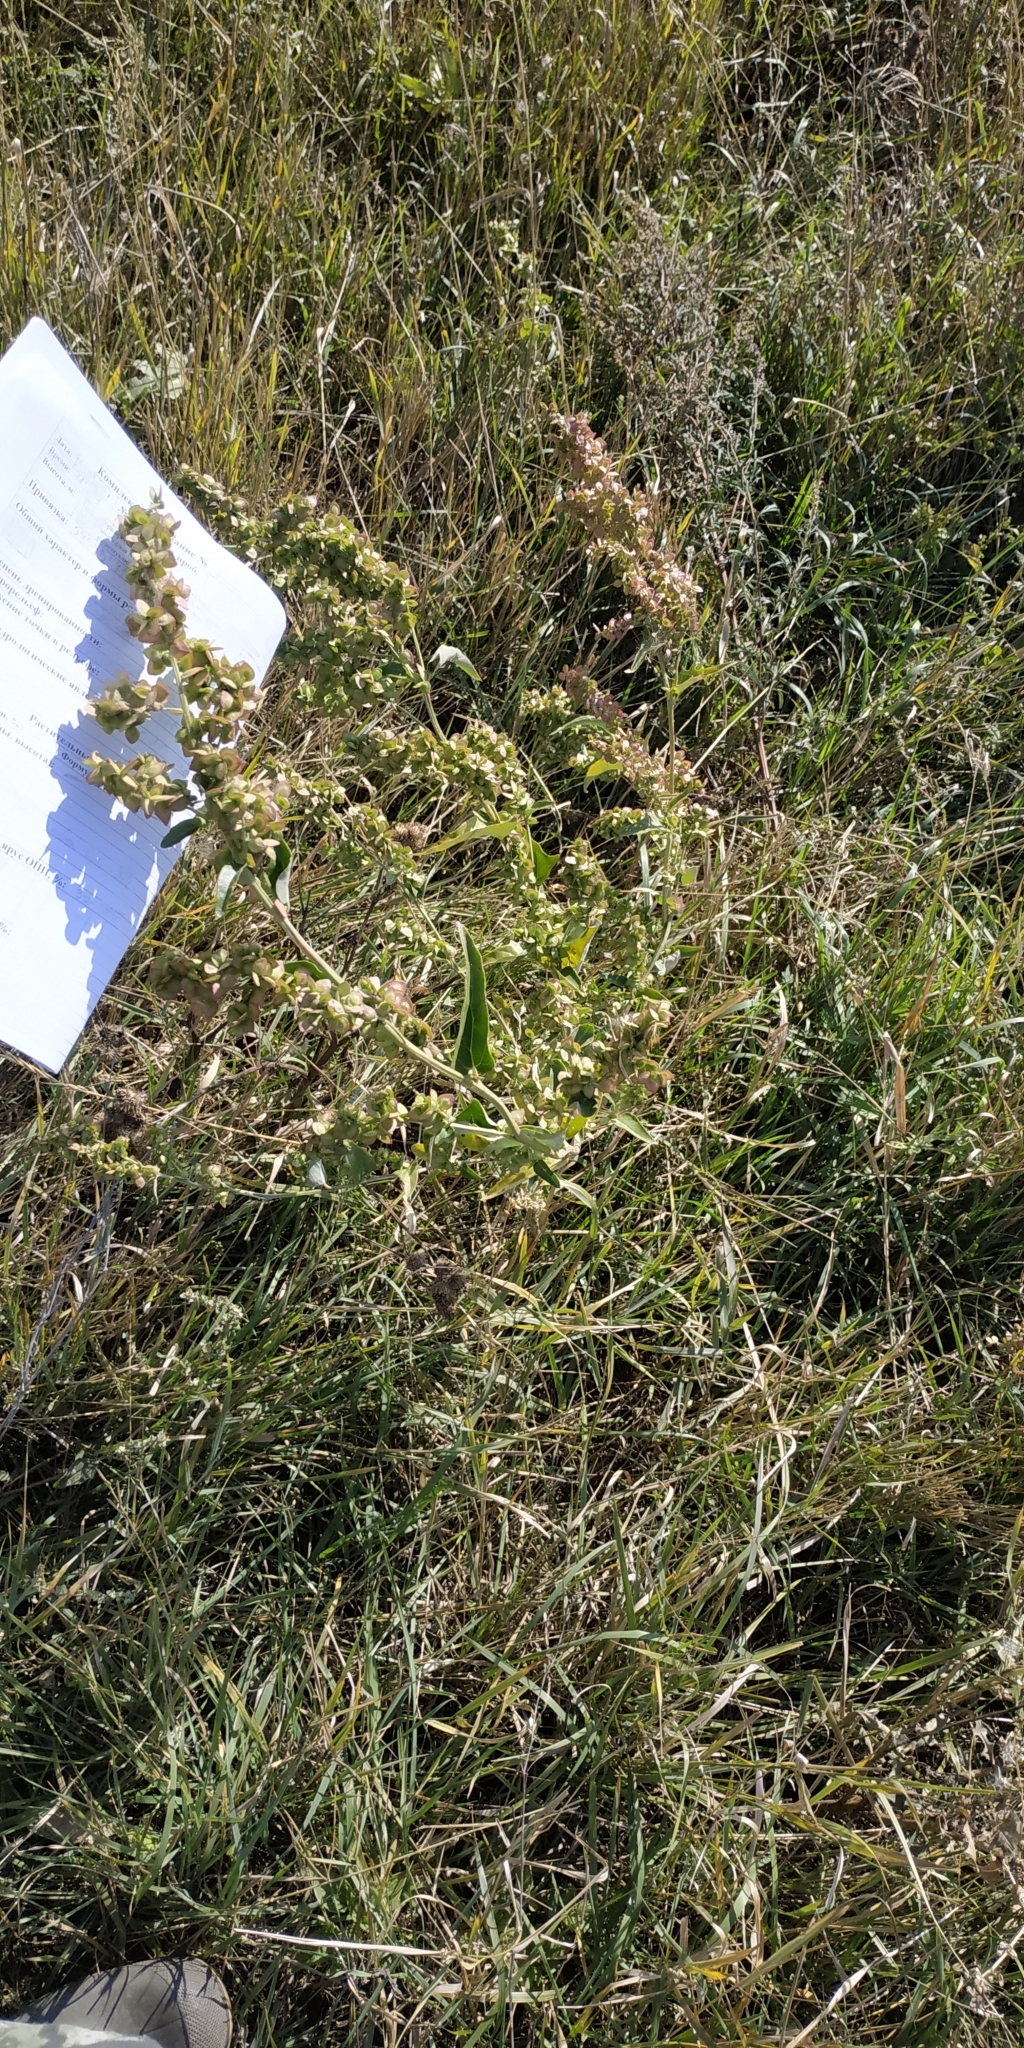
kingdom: Plantae
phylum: Tracheophyta
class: Magnoliopsida
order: Caryophyllales
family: Amaranthaceae
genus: Atriplex
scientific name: Atriplex sagittata
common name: Purple orache
